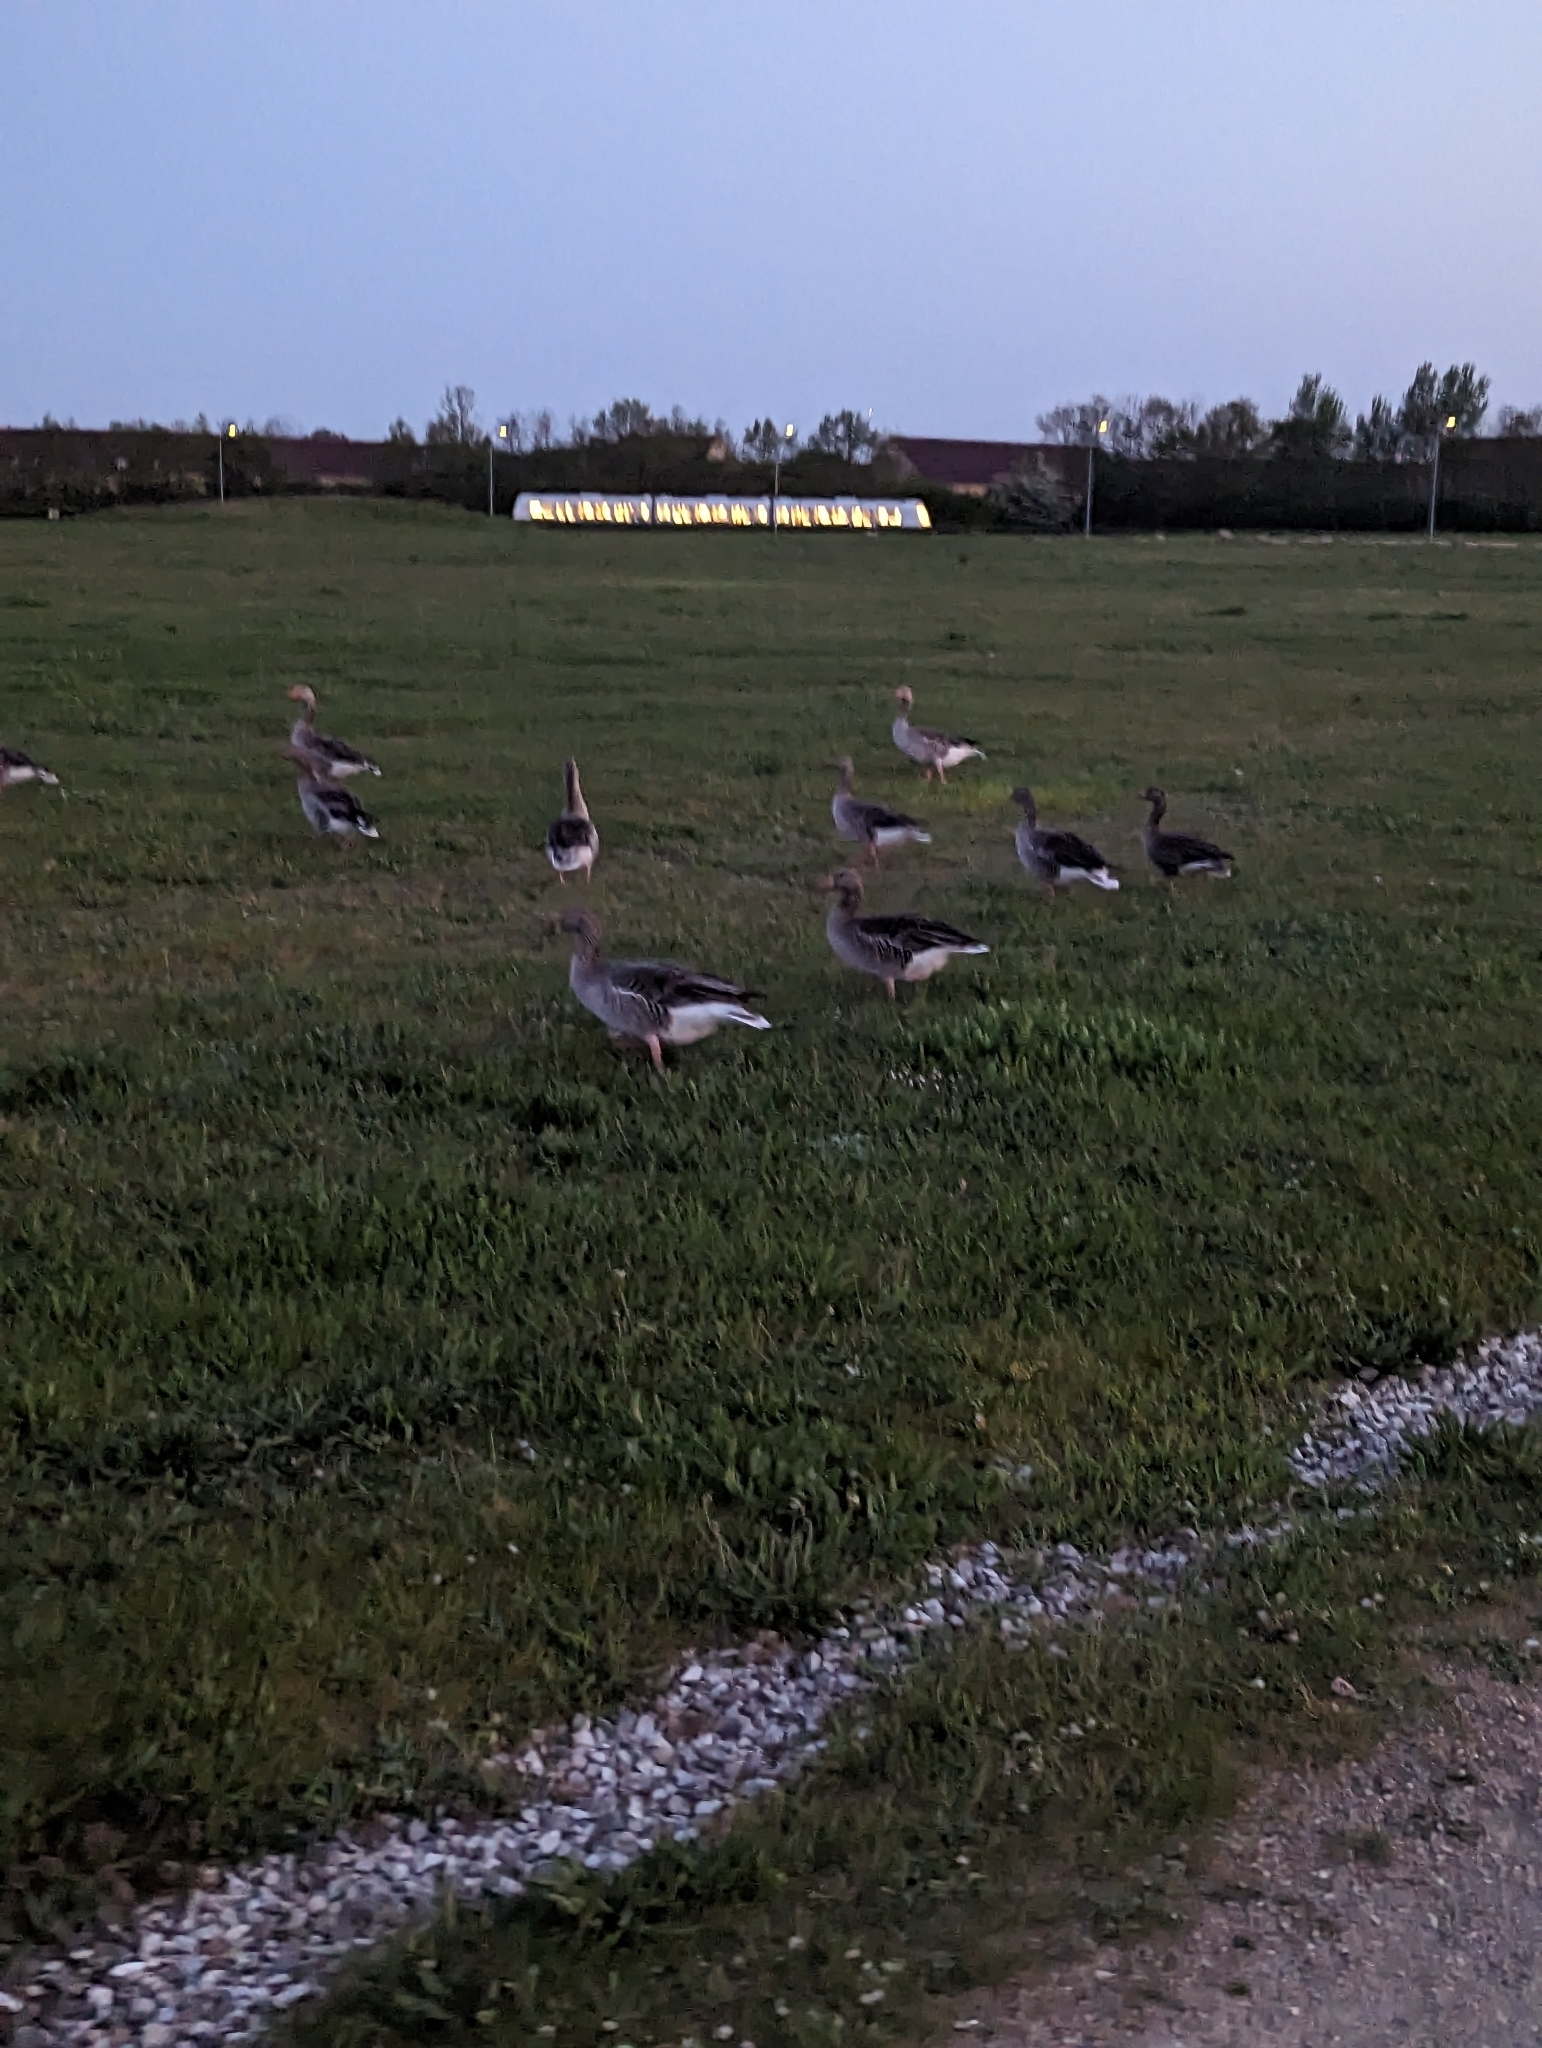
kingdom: Animalia
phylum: Chordata
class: Aves
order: Anseriformes
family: Anatidae
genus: Anser
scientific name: Anser anser
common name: Greylag goose
